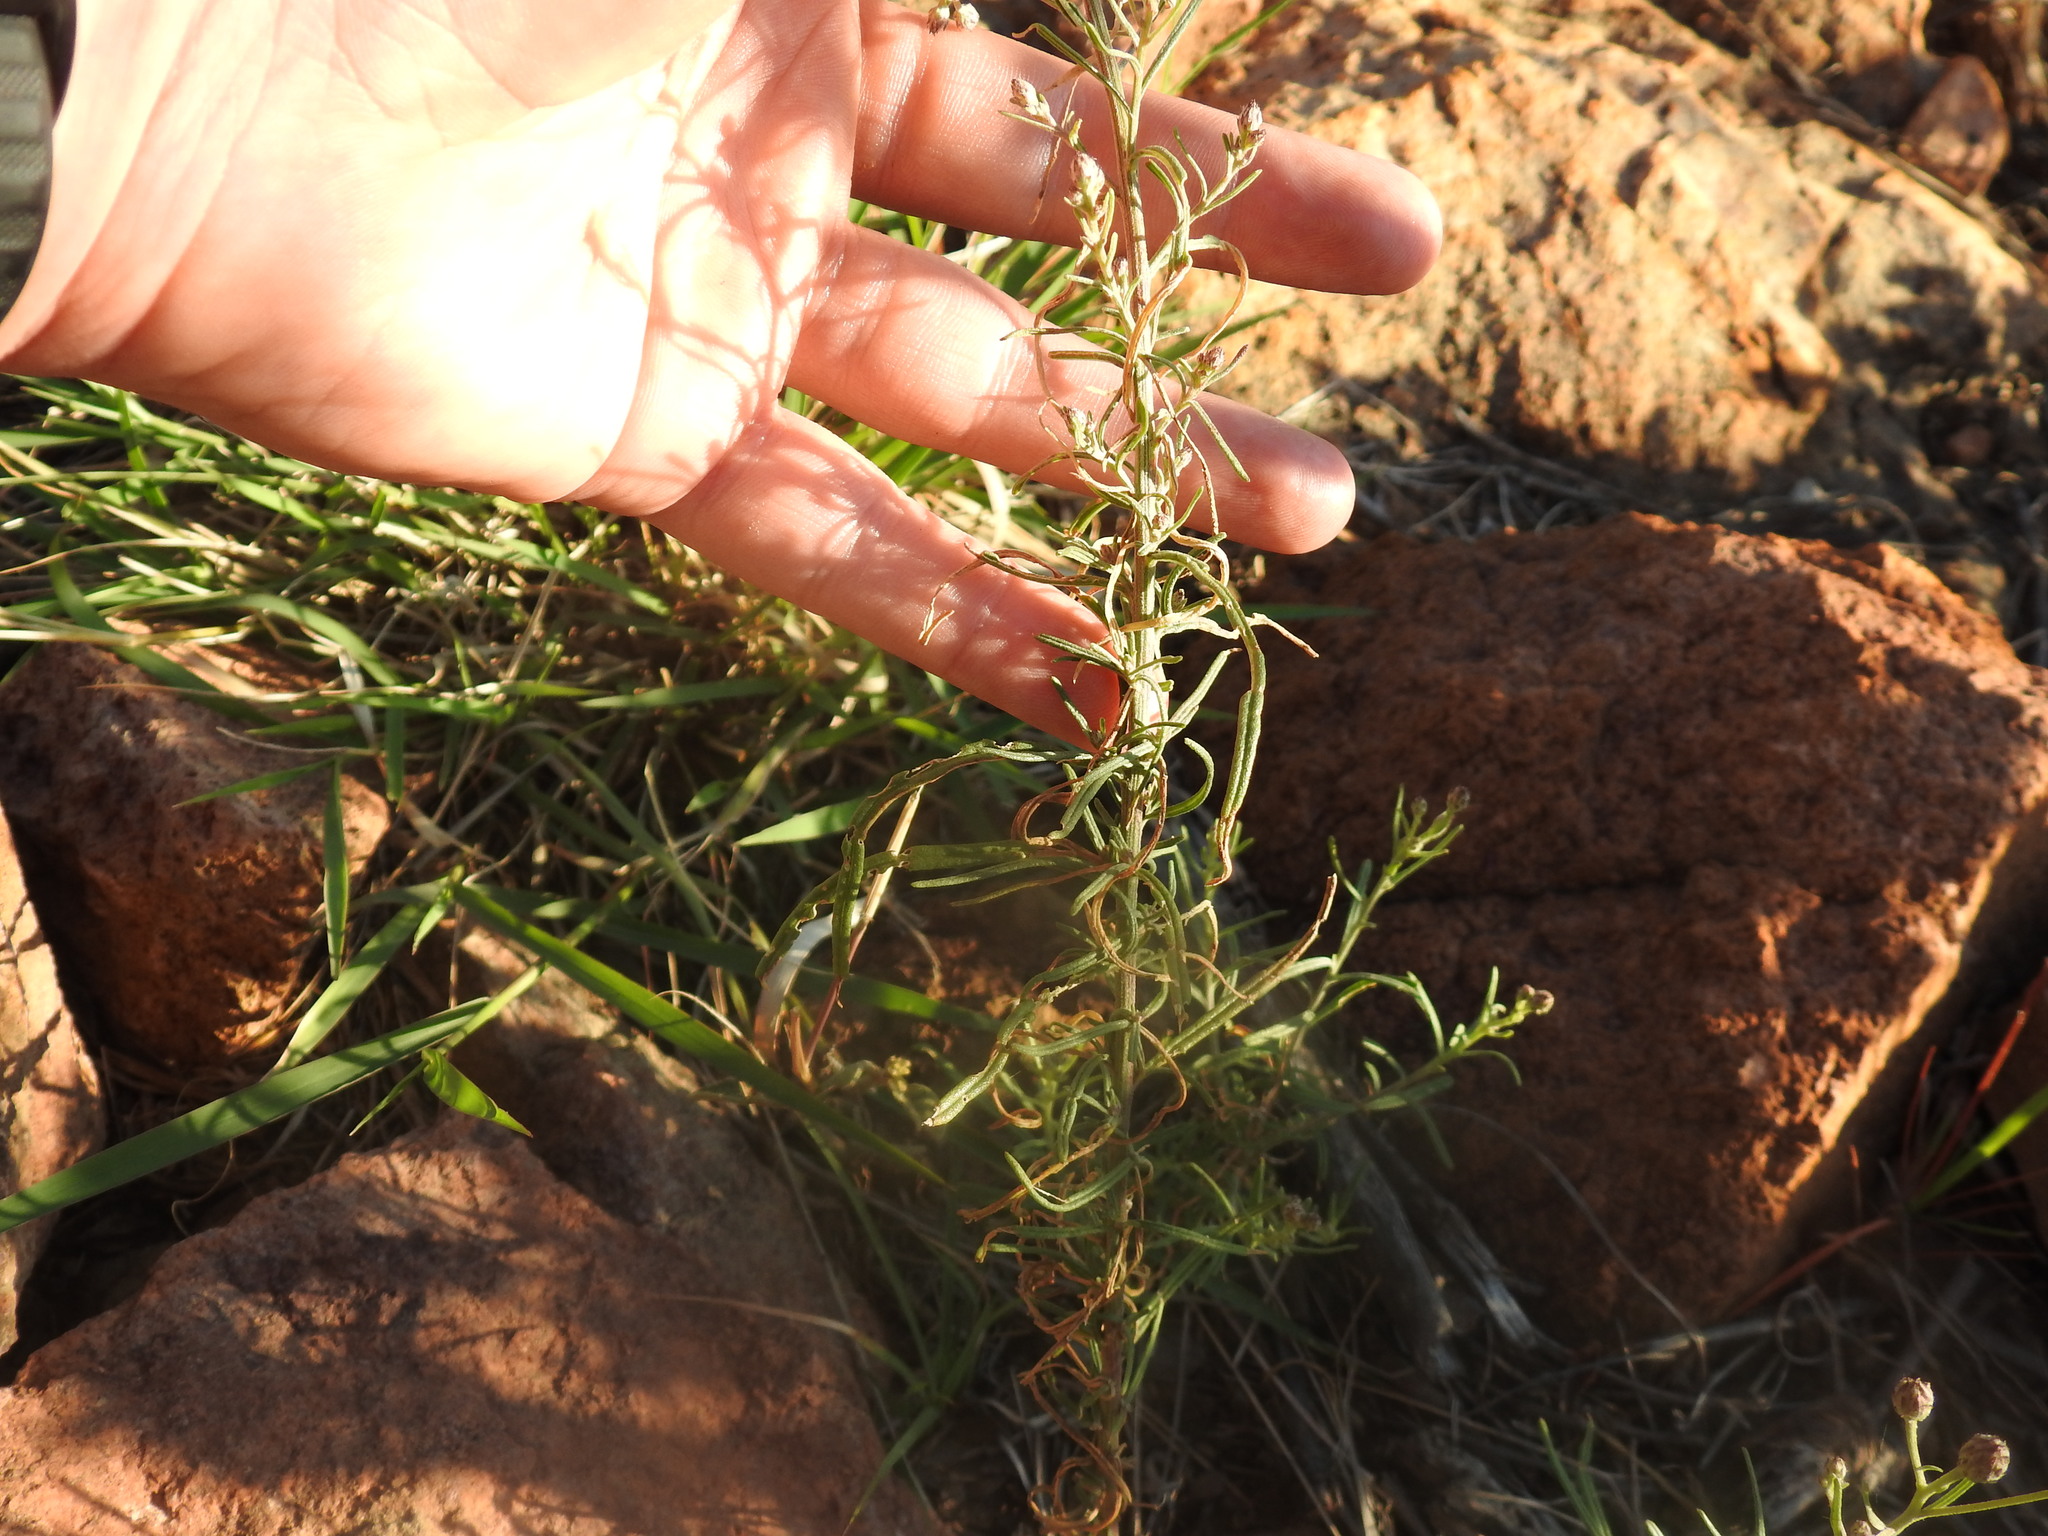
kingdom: Plantae
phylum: Tracheophyta
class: Magnoliopsida
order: Asterales
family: Asteraceae
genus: Crystallopollen
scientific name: Crystallopollen angustifolium
